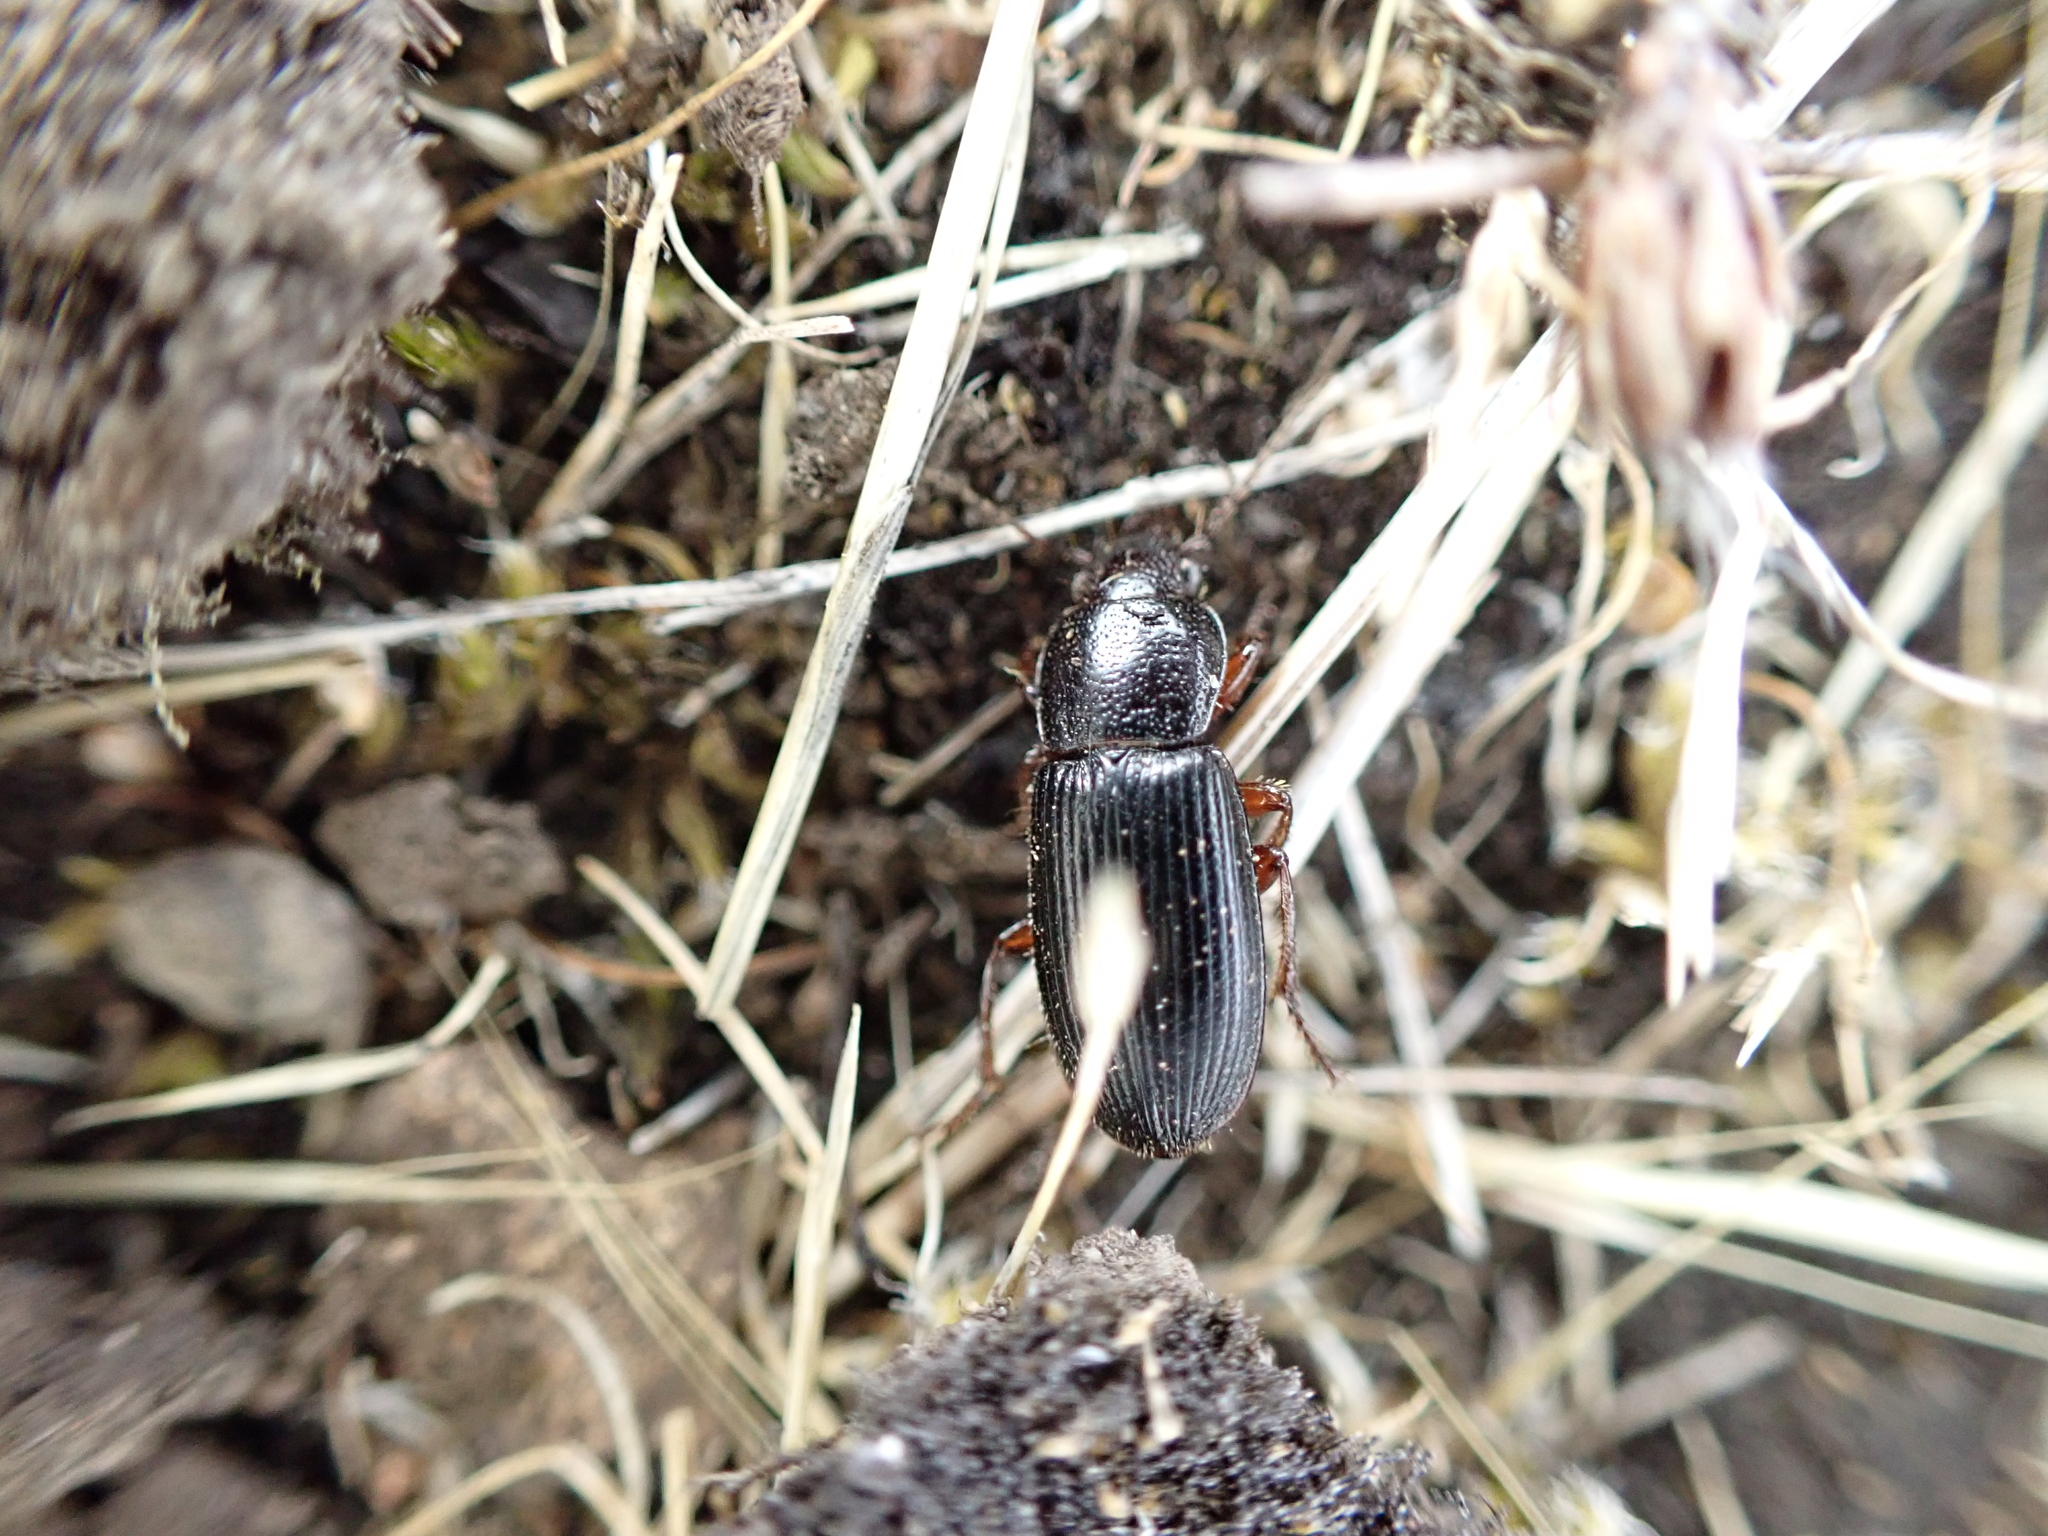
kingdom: Animalia
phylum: Arthropoda
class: Insecta
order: Coleoptera
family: Carabidae
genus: Dicheirus
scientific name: Dicheirus piceus
